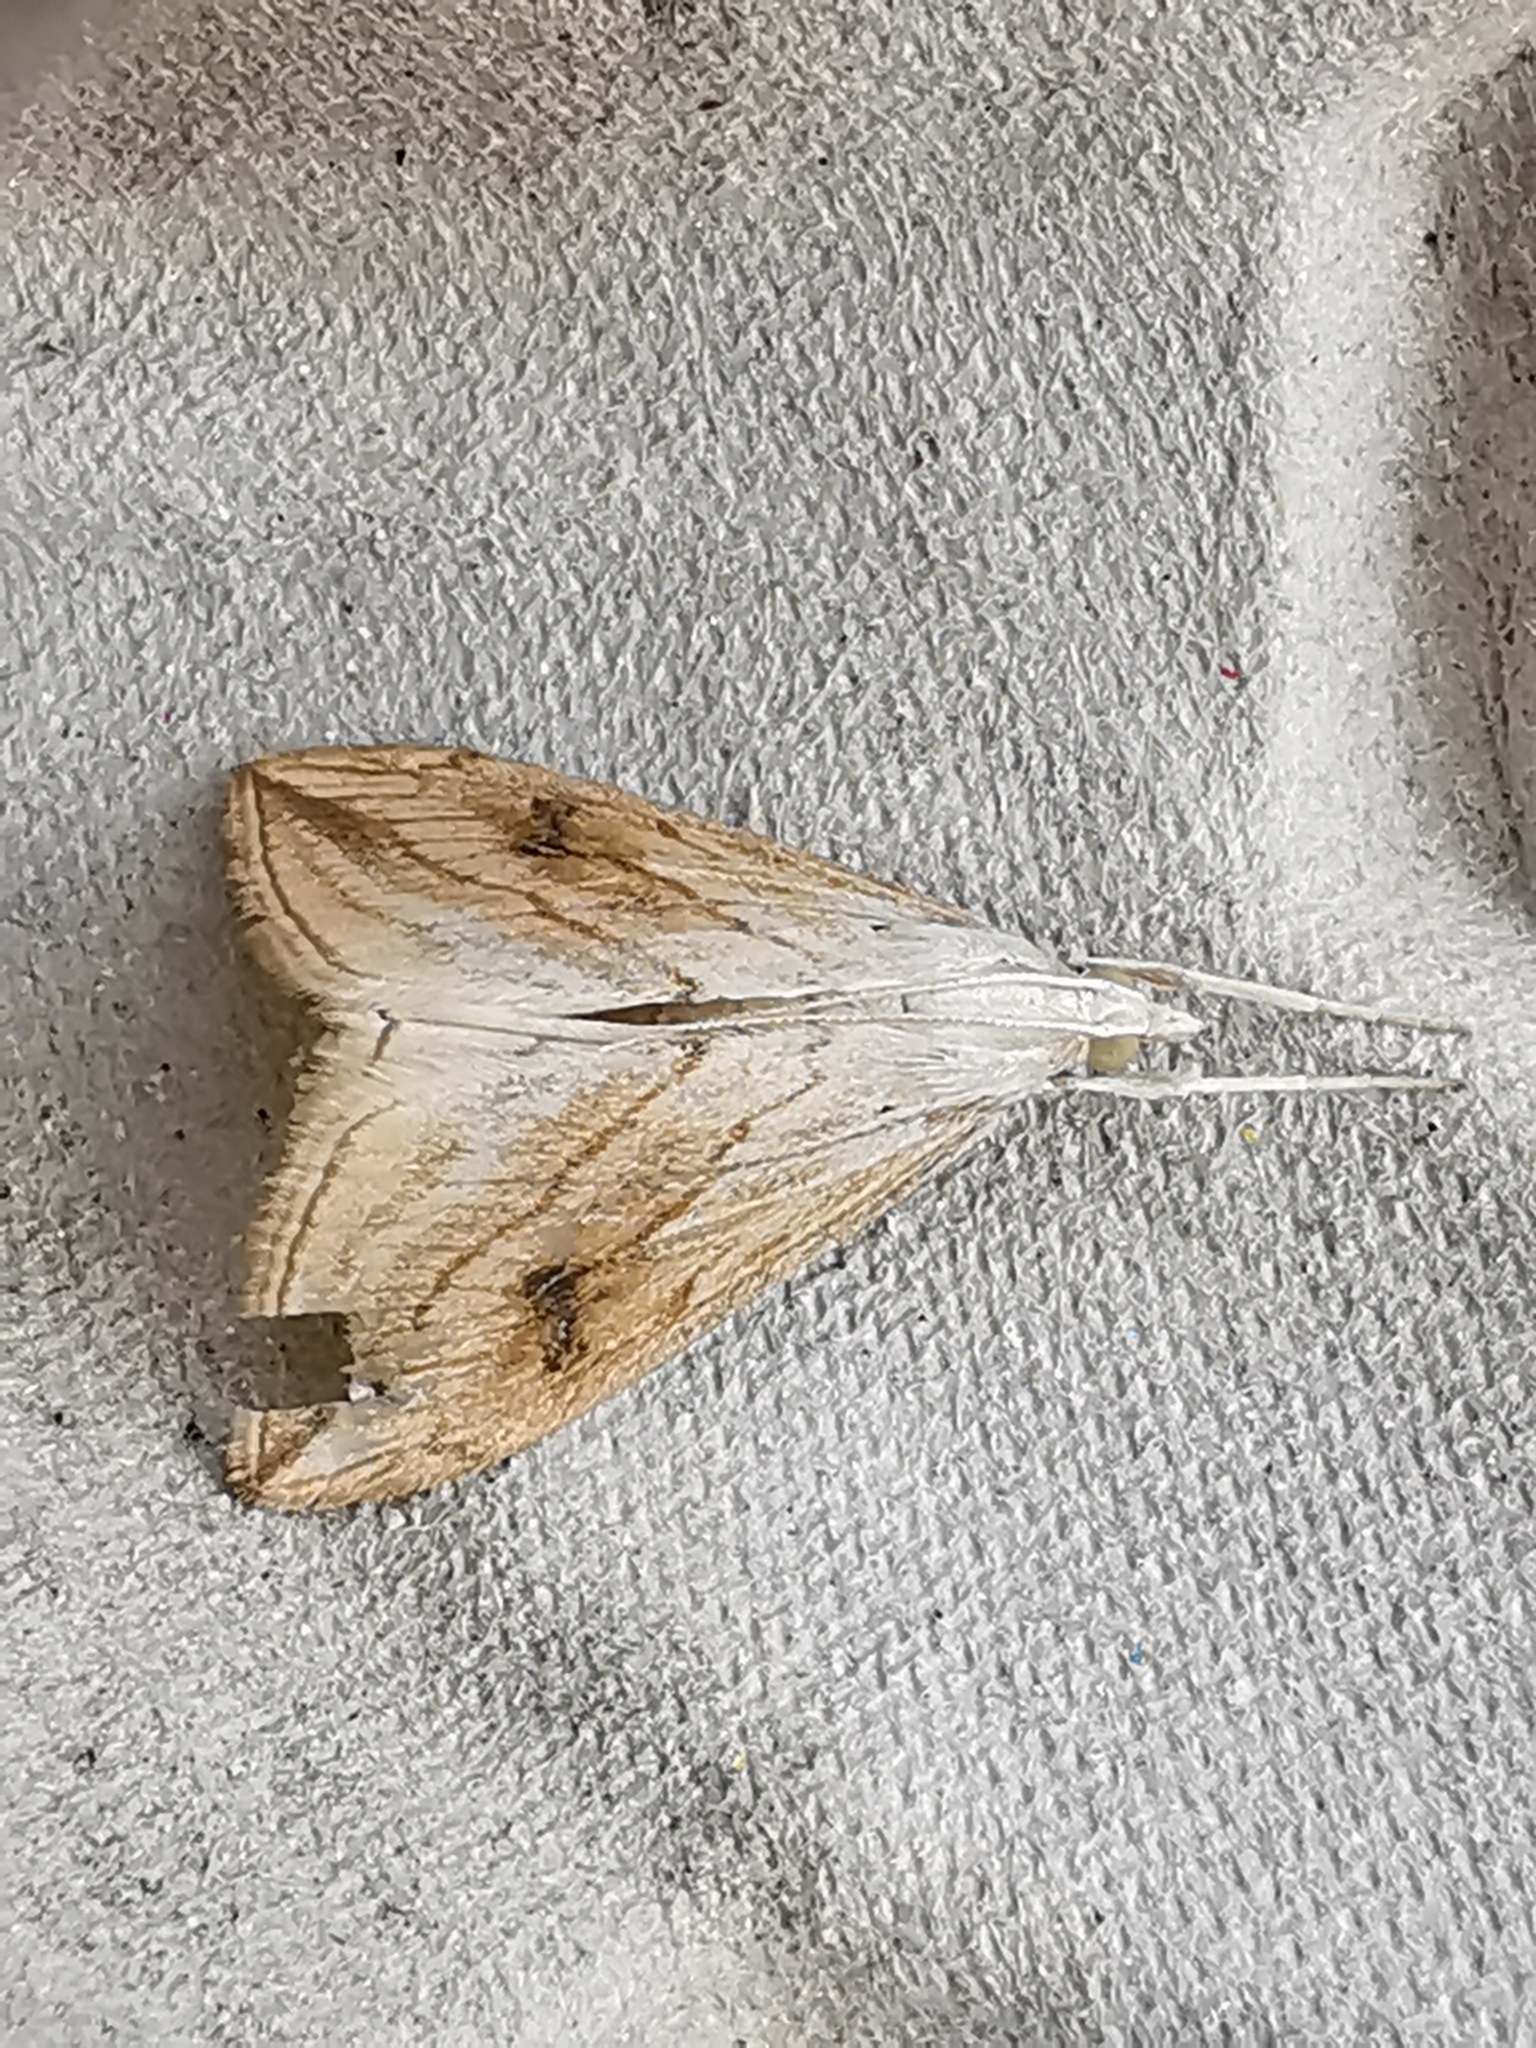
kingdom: Animalia
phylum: Arthropoda
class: Insecta
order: Lepidoptera
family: Crambidae
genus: Evergestis
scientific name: Evergestis forficalis
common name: Garden pebble
